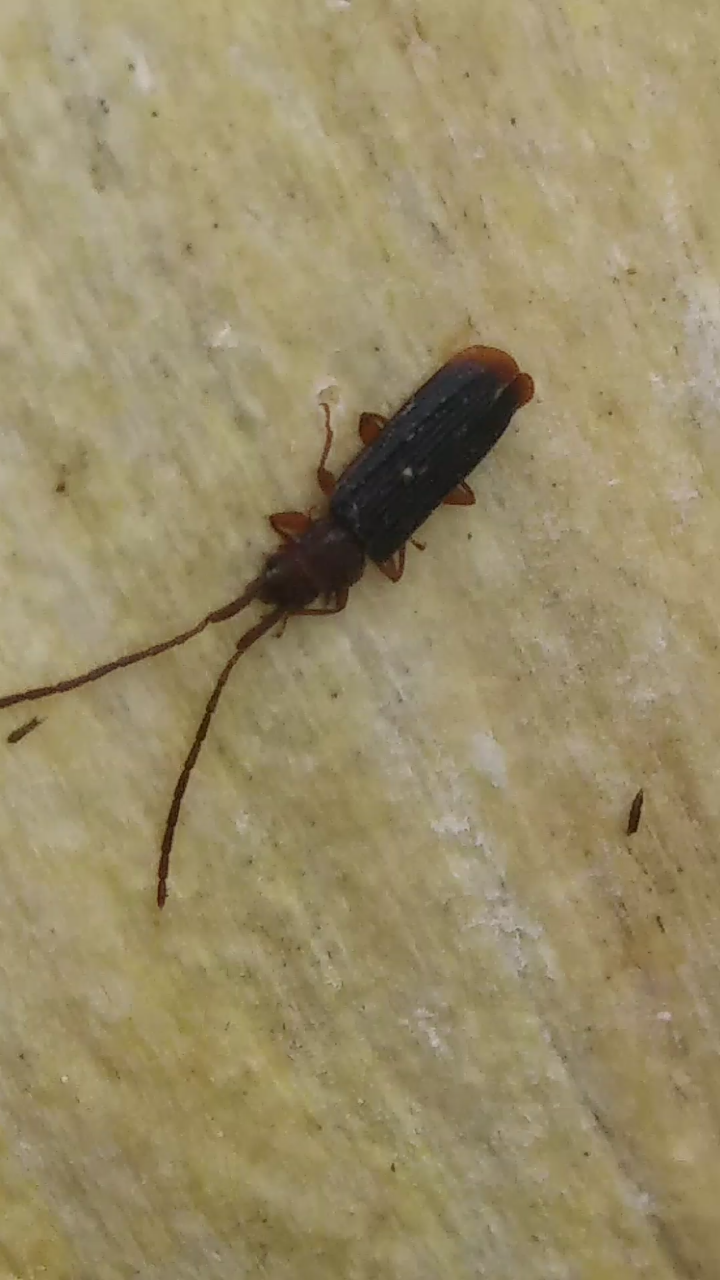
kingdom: Animalia
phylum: Arthropoda
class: Insecta
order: Coleoptera
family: Silvanidae
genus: Uleiota
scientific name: Uleiota dubia
